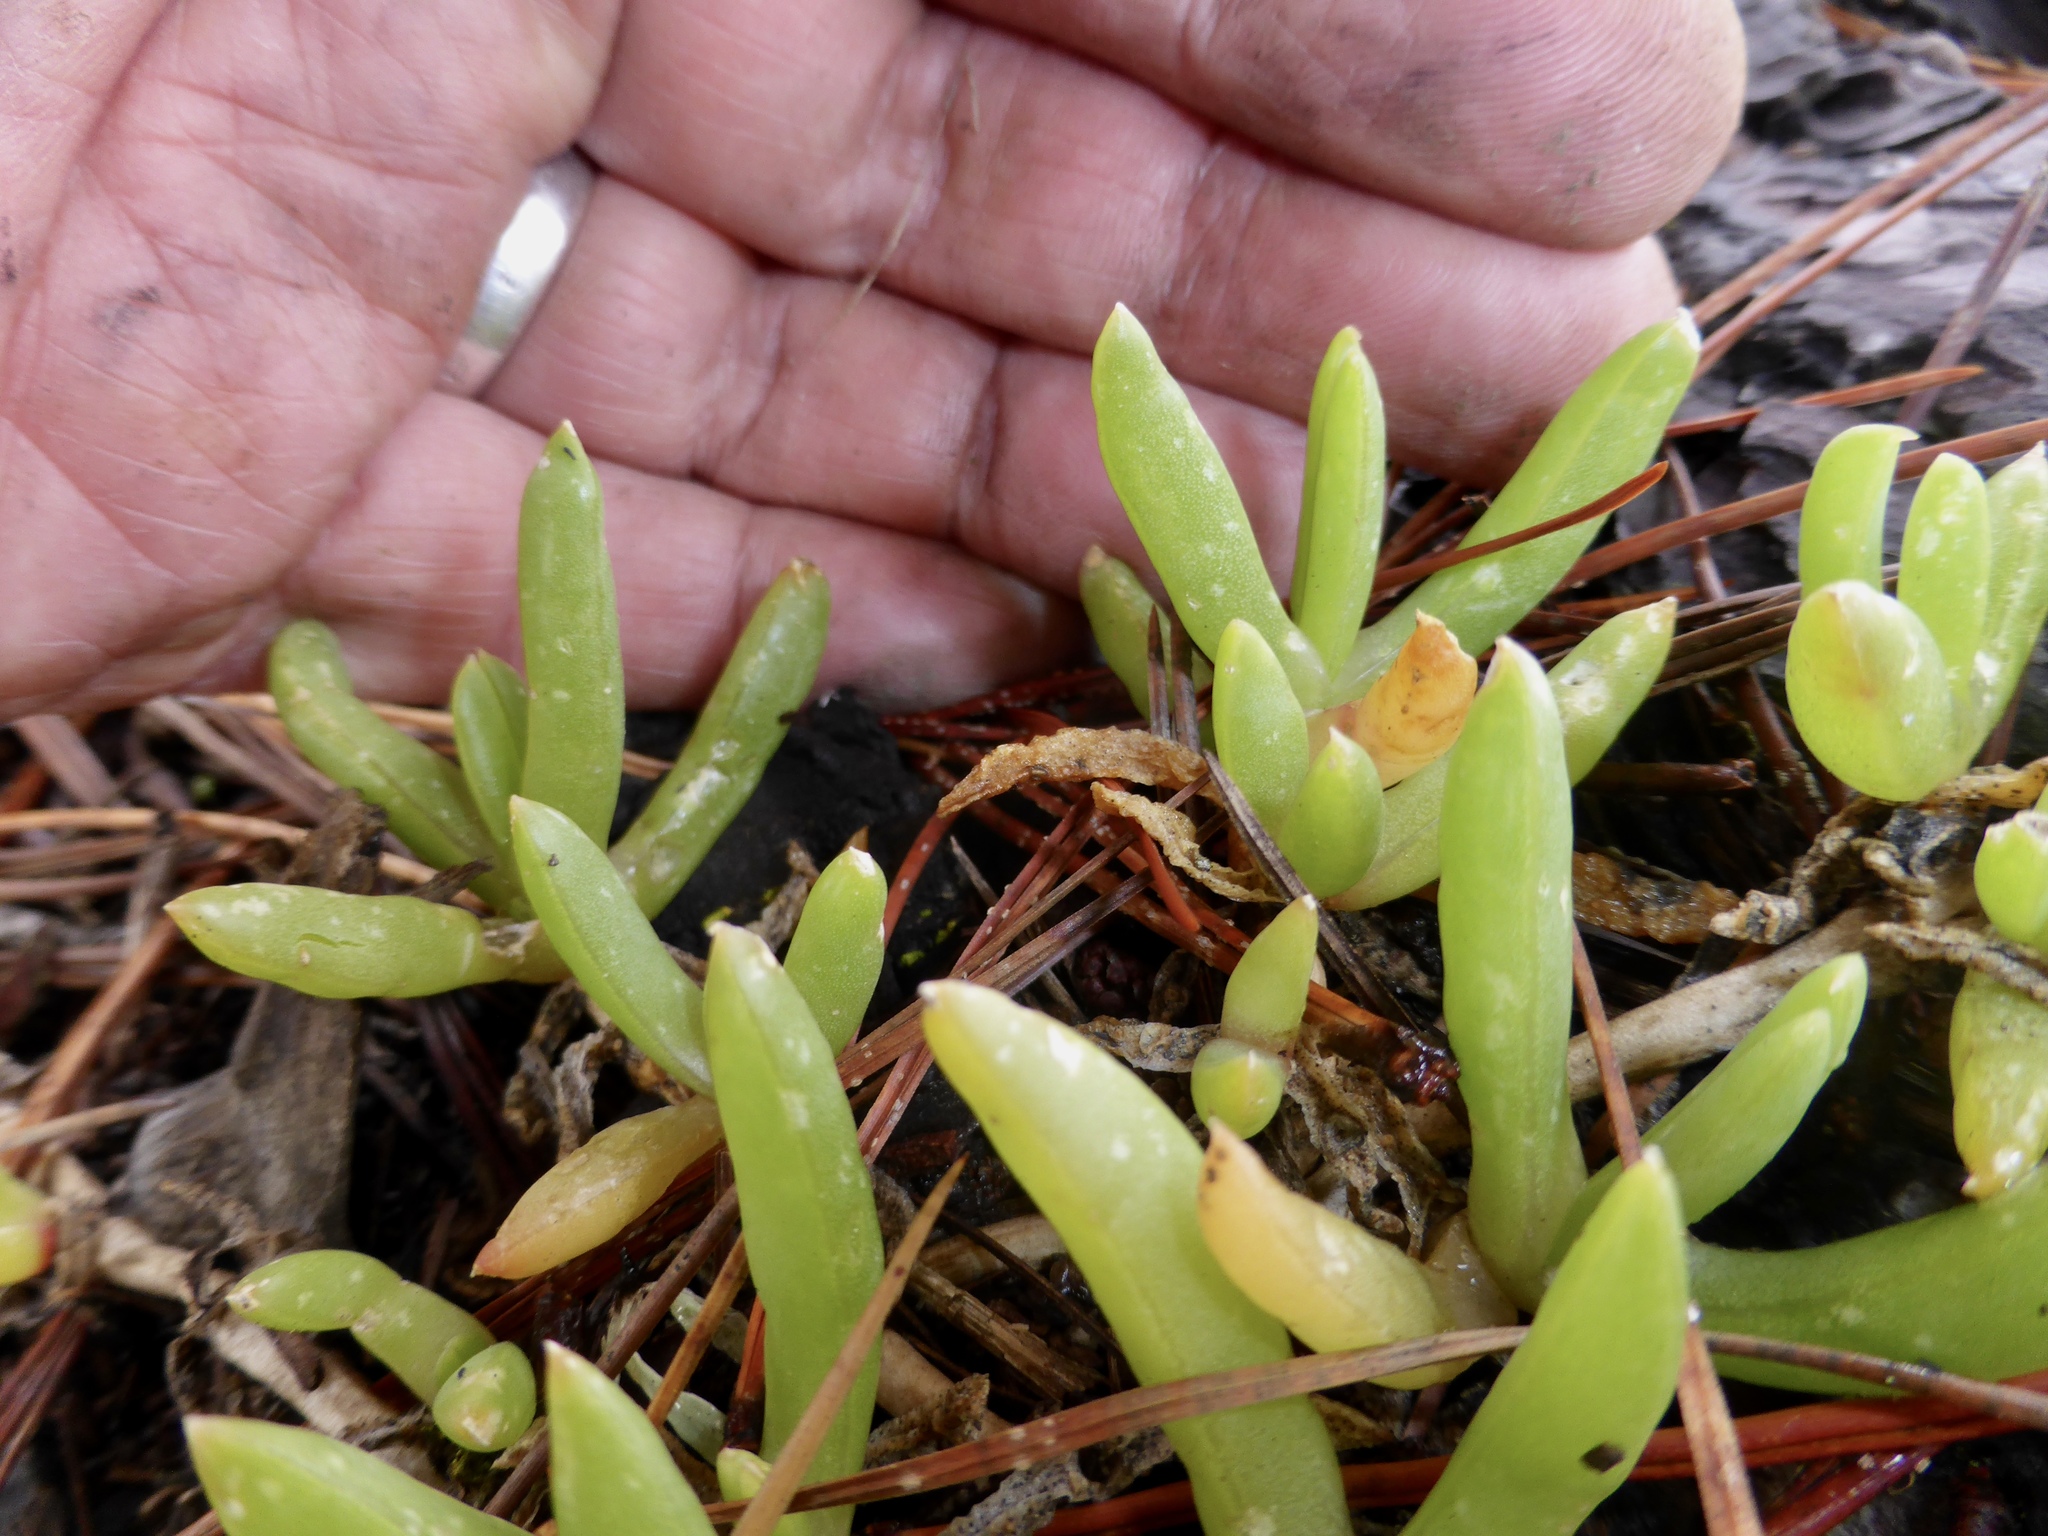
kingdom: Plantae
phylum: Tracheophyta
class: Magnoliopsida
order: Caryophyllales
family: Aizoaceae
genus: Disphyma
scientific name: Disphyma australe
